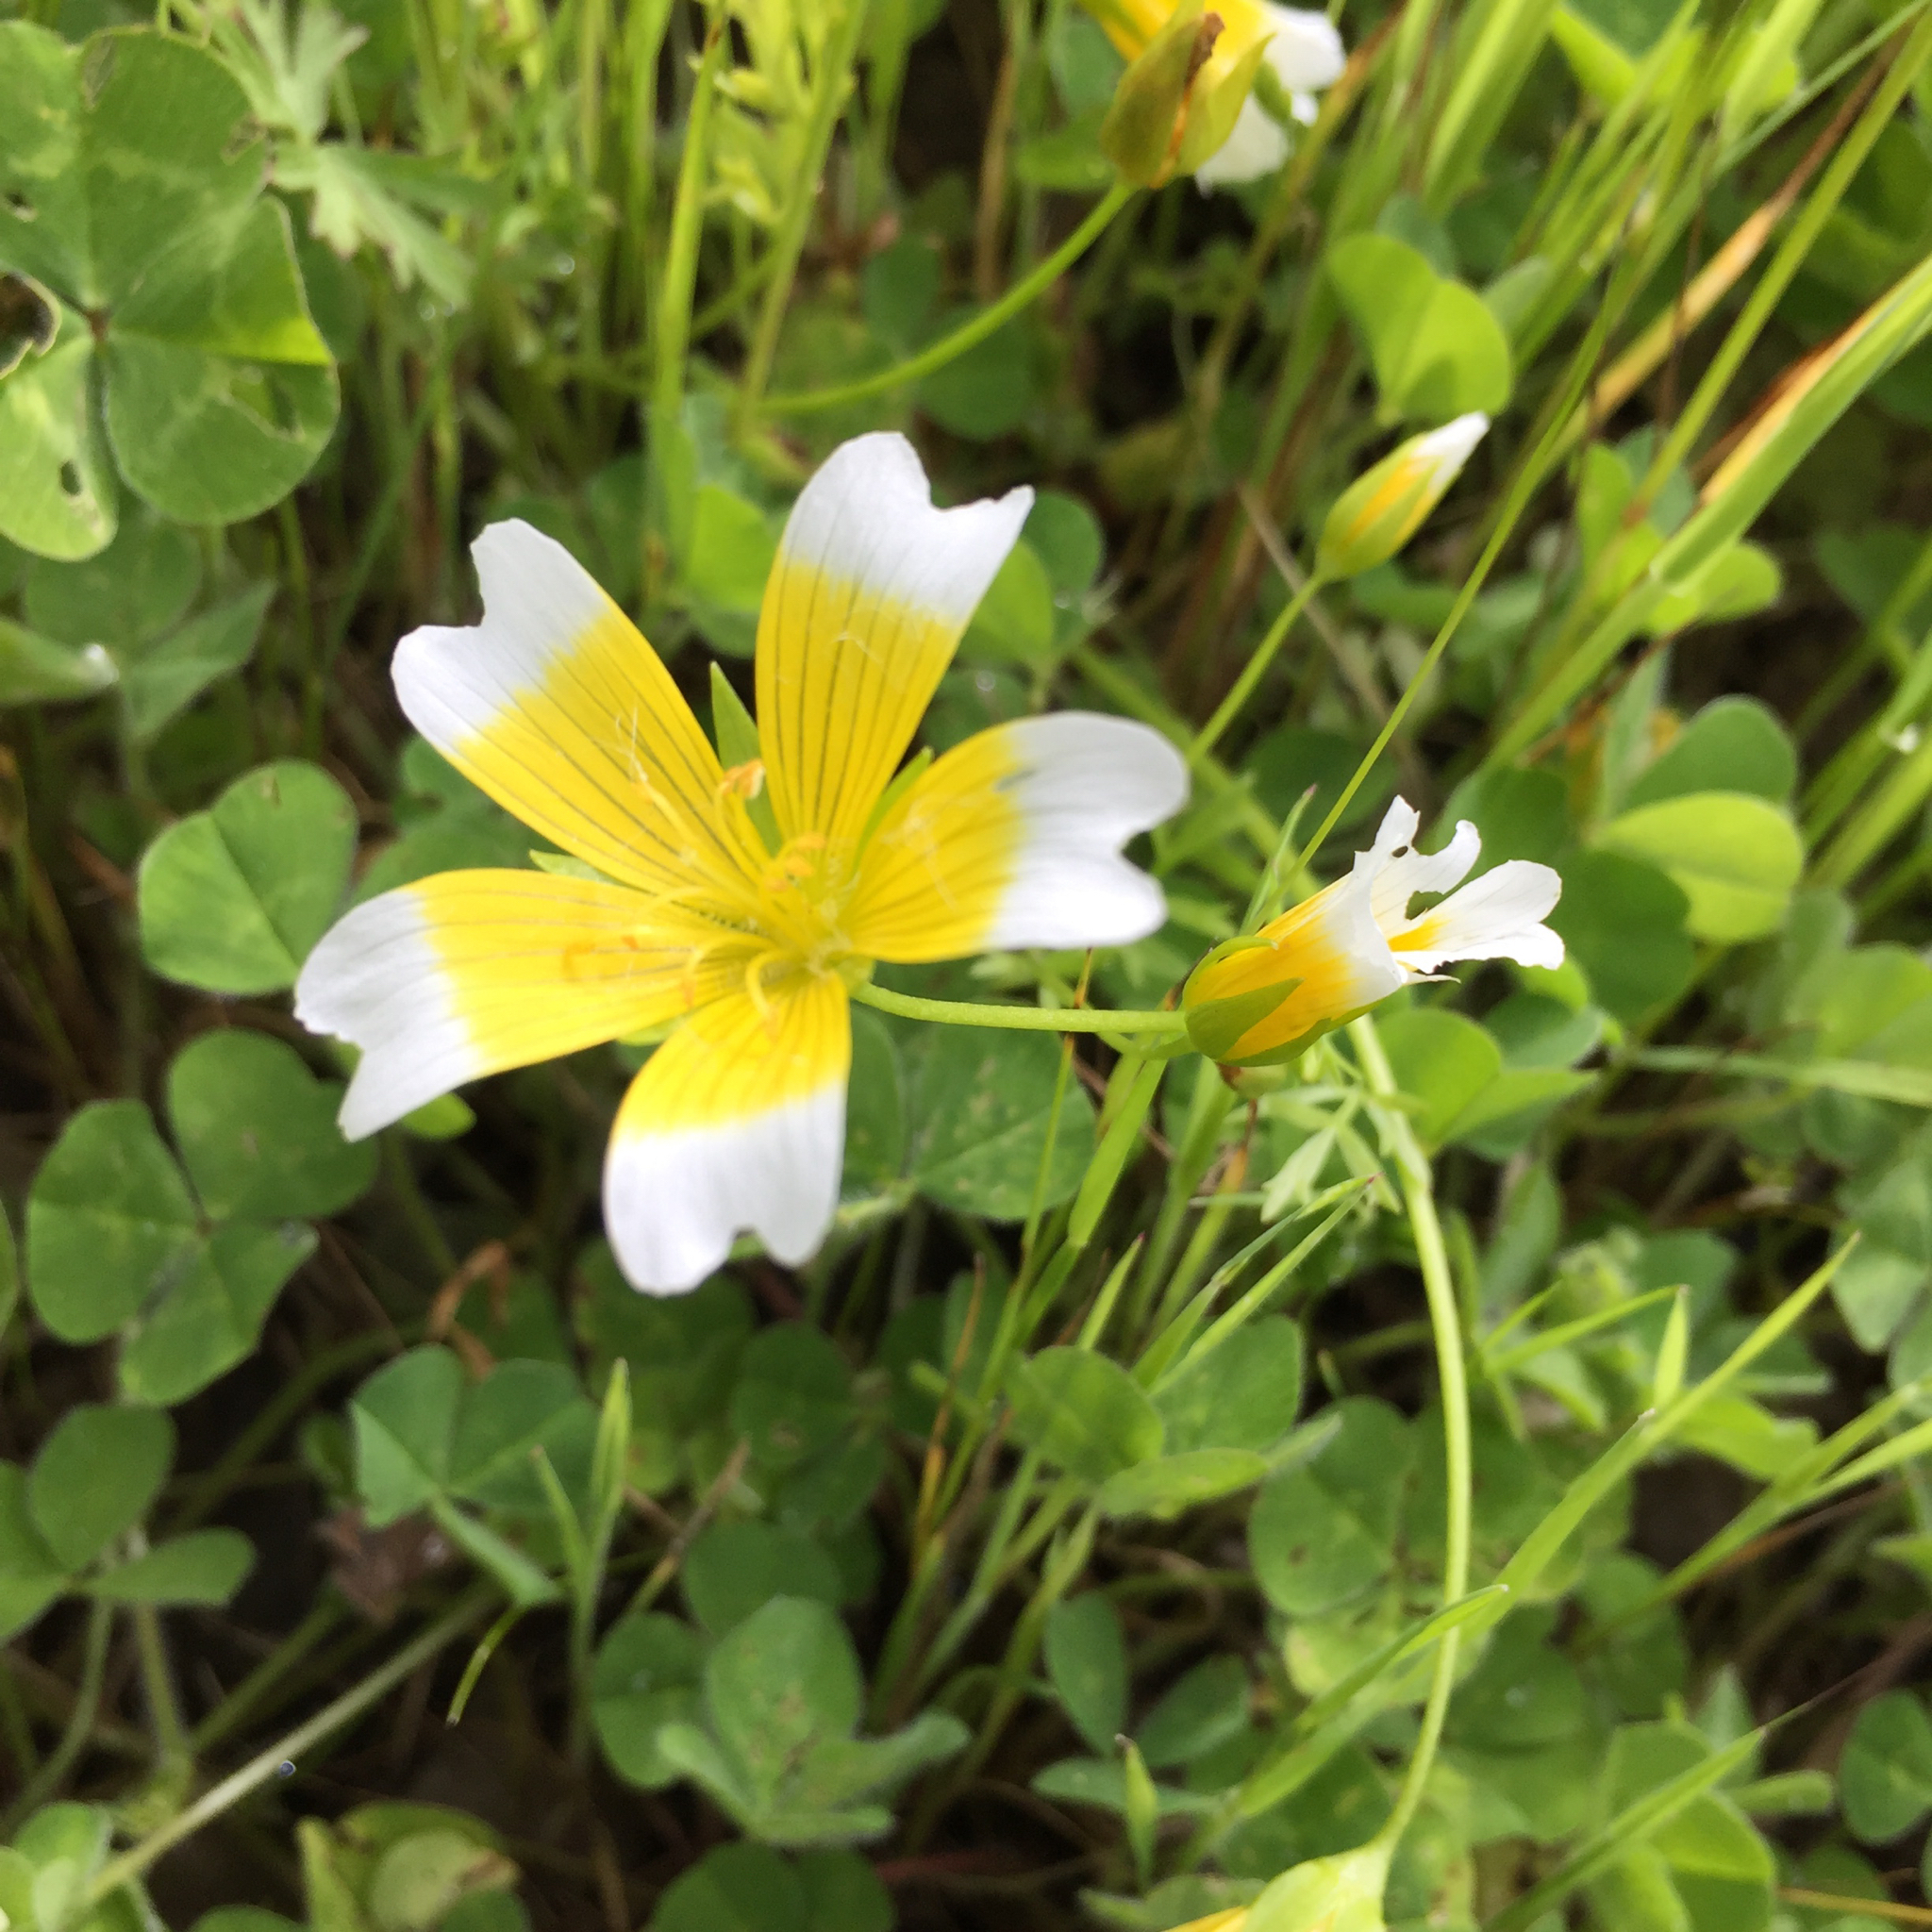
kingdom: Plantae
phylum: Tracheophyta
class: Magnoliopsida
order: Brassicales
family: Limnanthaceae
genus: Limnanthes
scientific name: Limnanthes douglasii
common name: Meadow-foam
